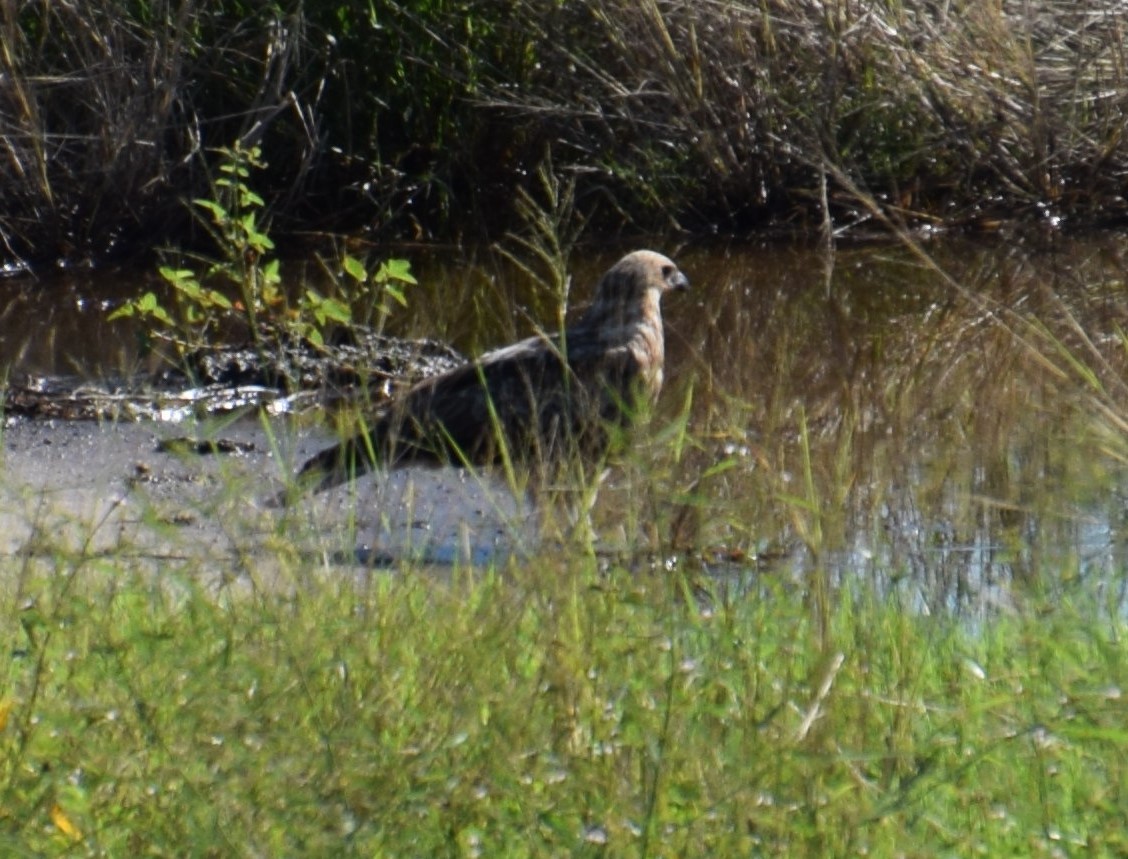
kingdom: Animalia
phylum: Chordata
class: Aves
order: Accipitriformes
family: Accipitridae
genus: Haliastur
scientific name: Haliastur sphenurus
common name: Whistling kite
